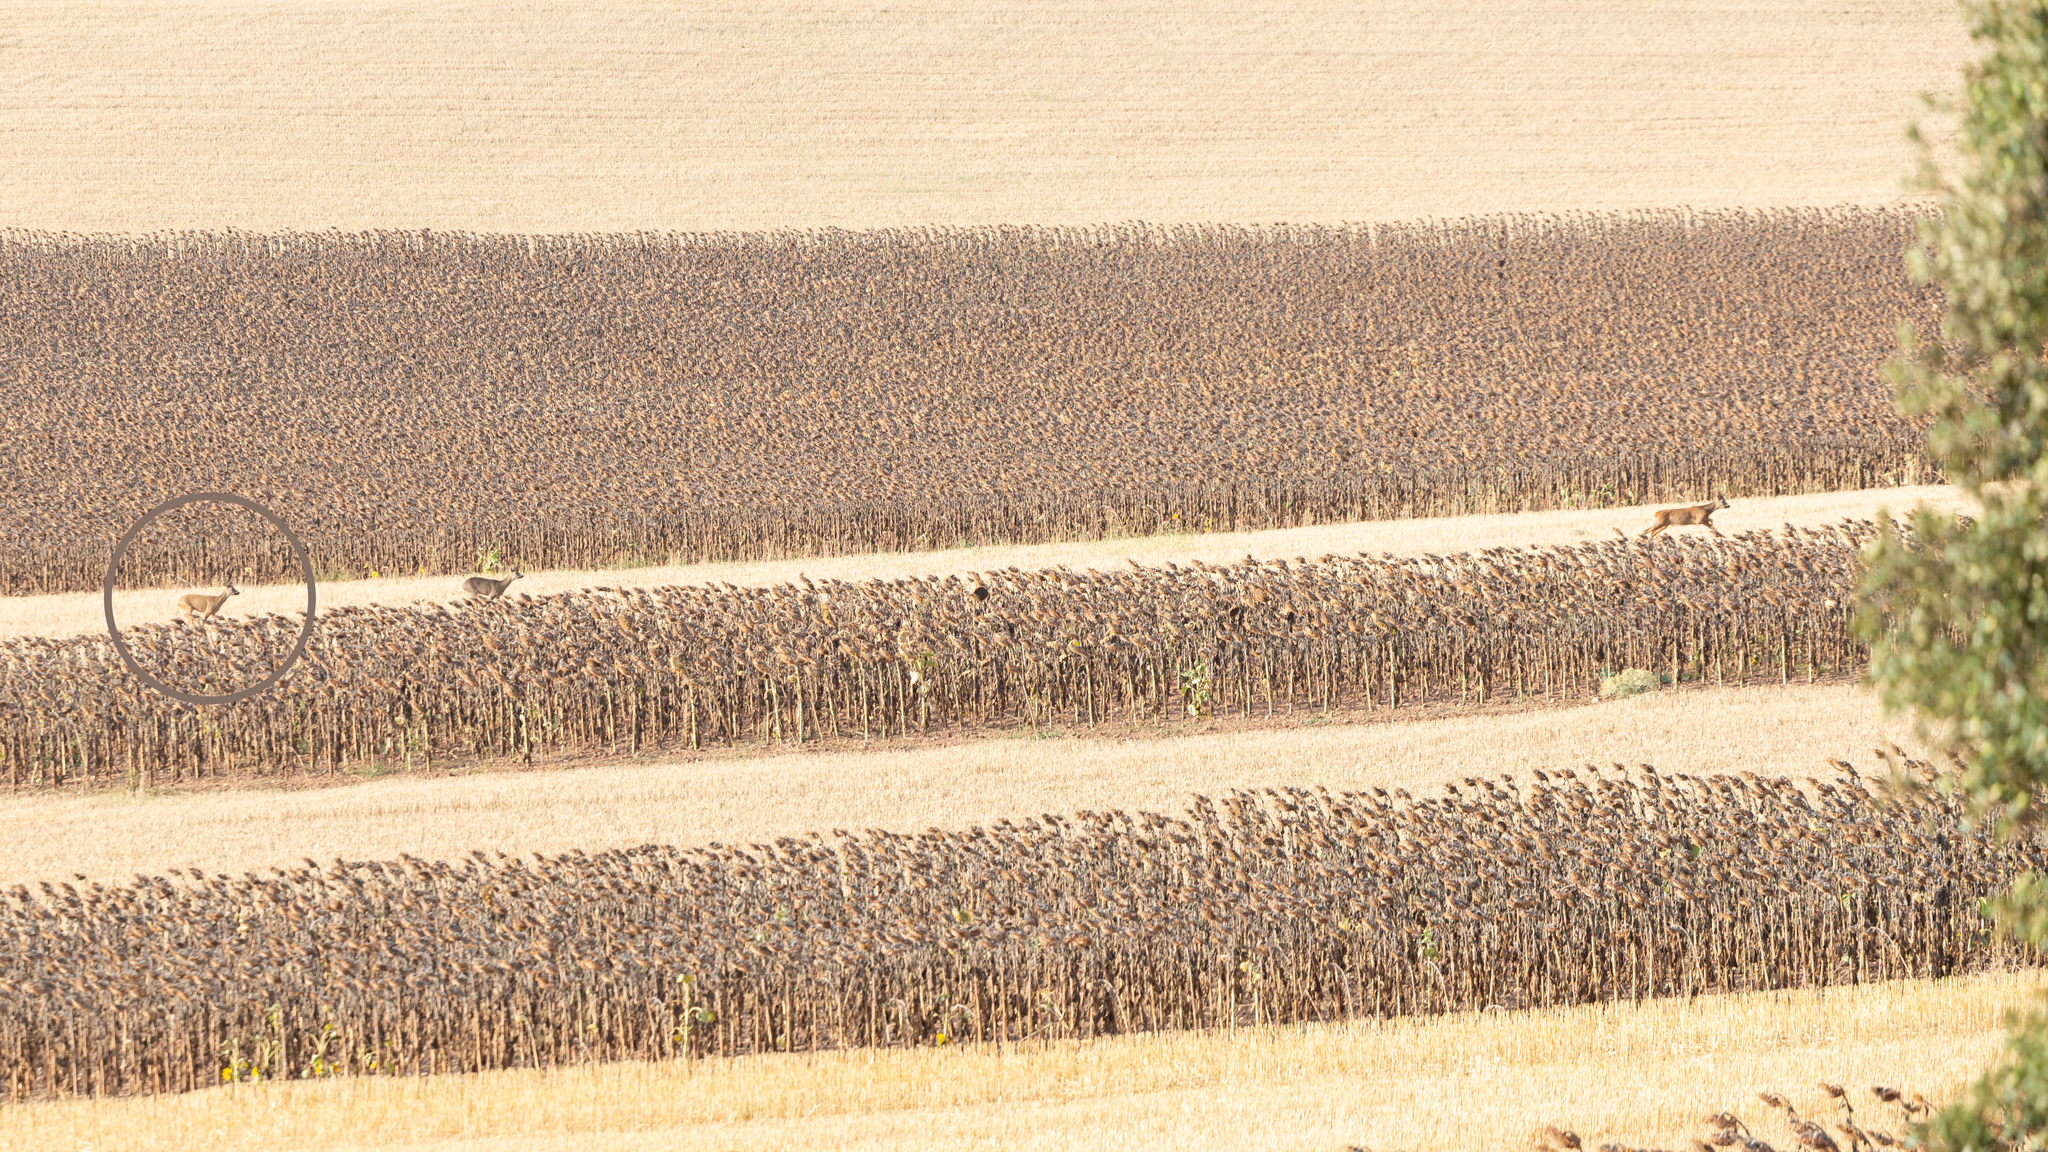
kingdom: Animalia
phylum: Chordata
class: Mammalia
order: Artiodactyla
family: Cervidae
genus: Capreolus
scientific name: Capreolus capreolus
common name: Western roe deer
